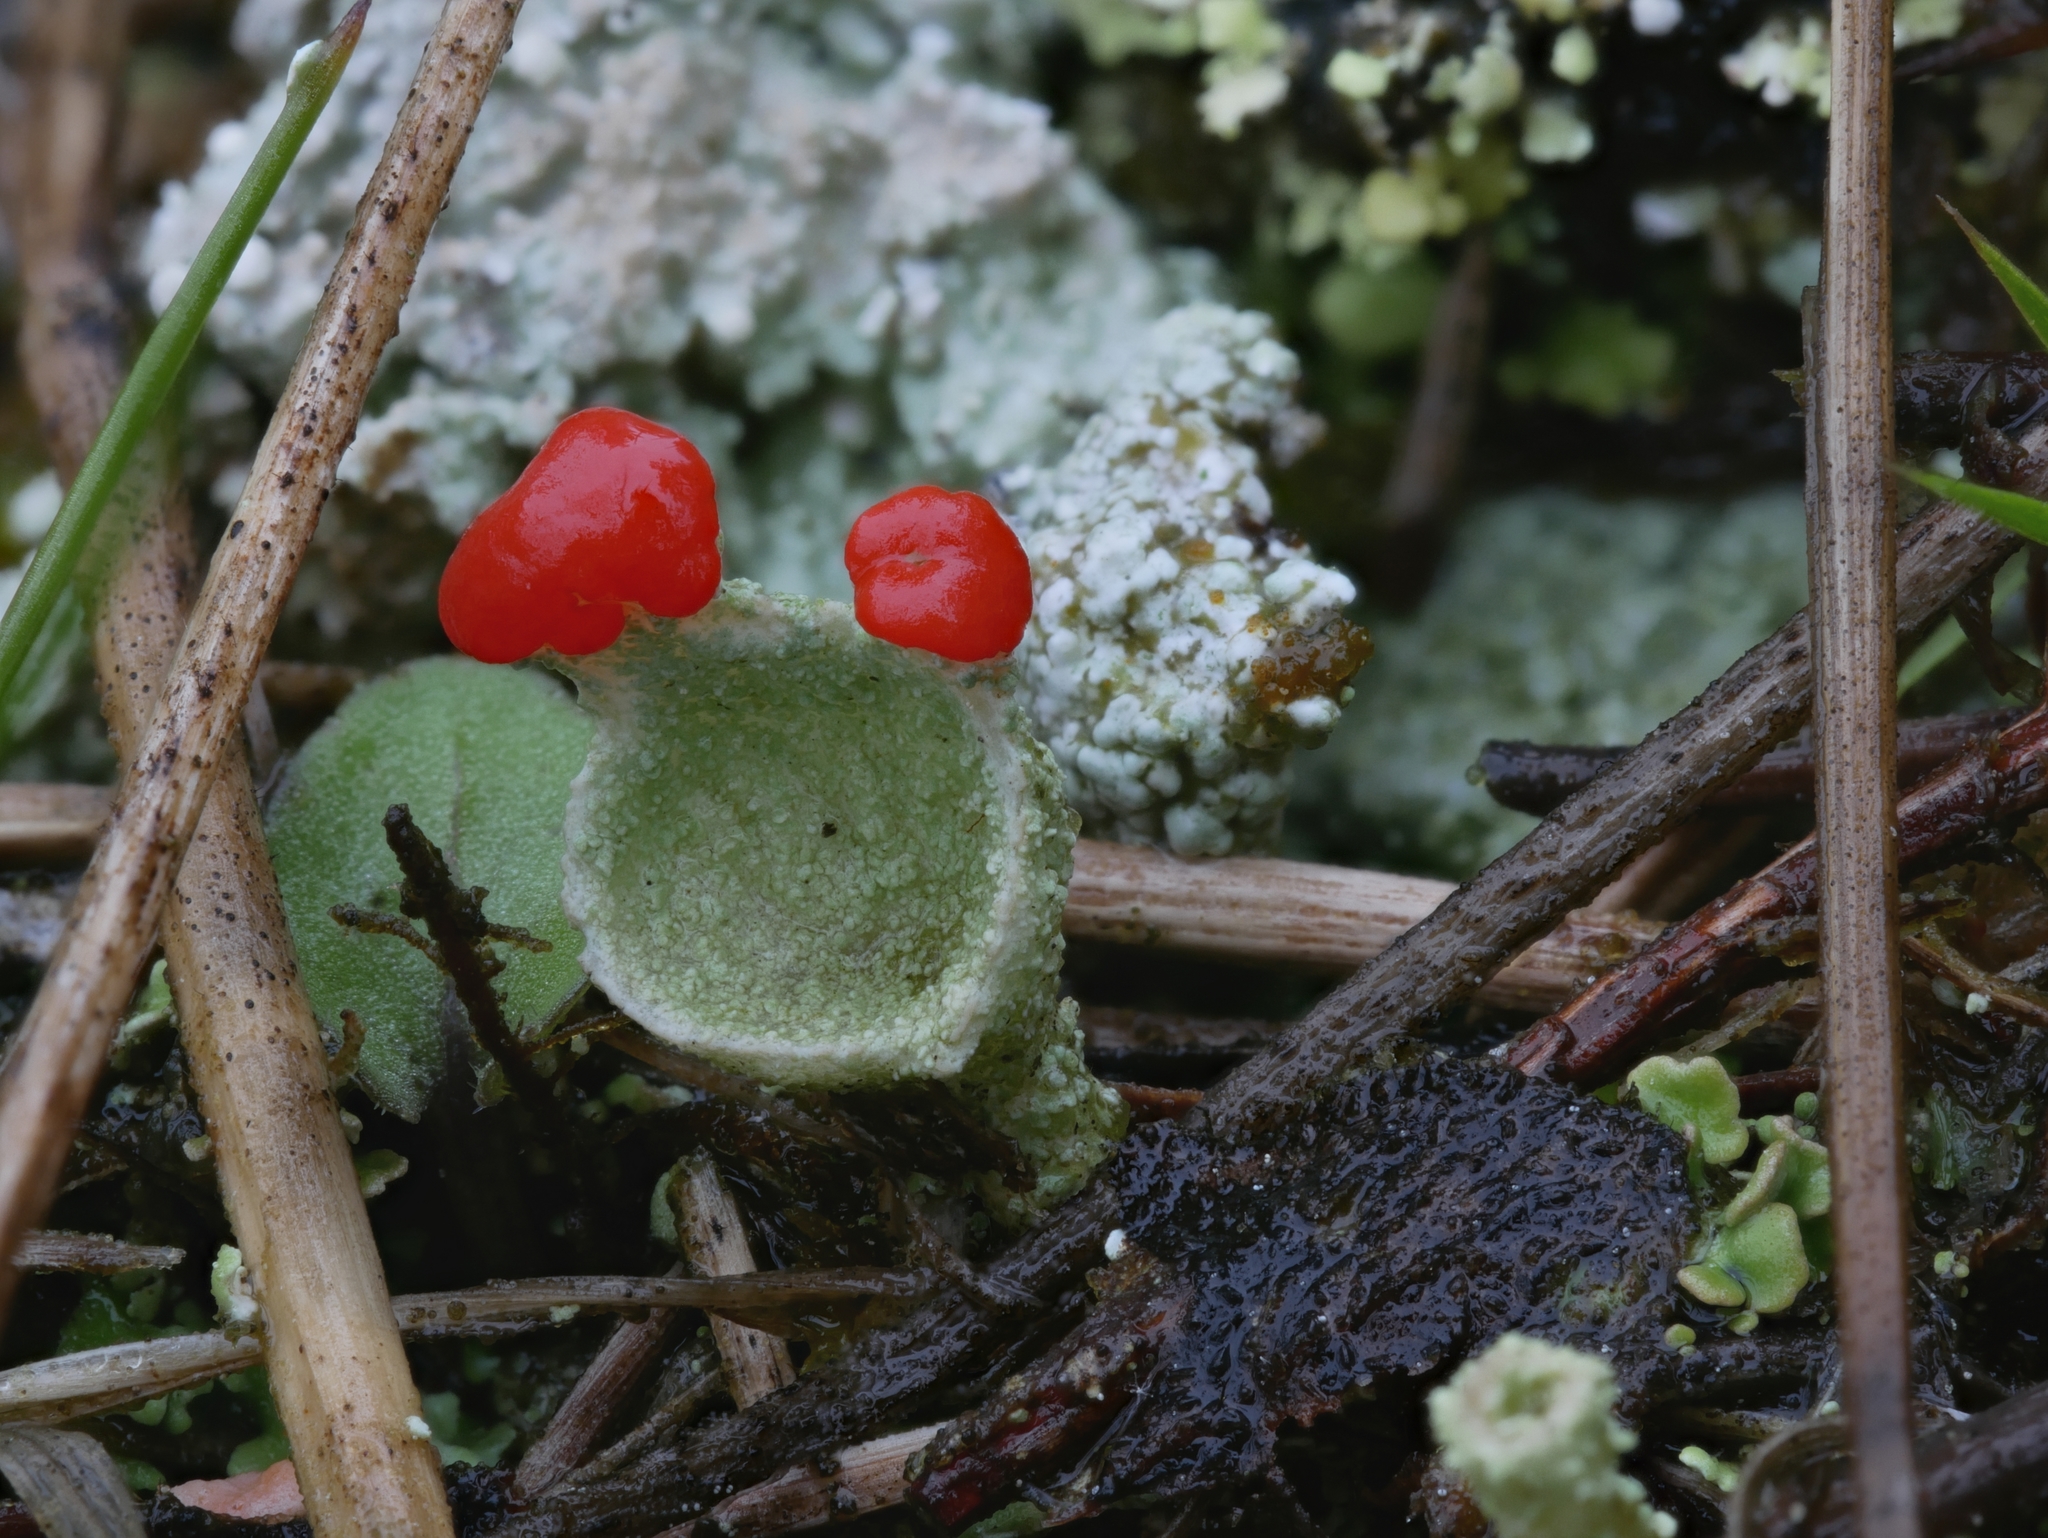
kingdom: Fungi
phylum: Ascomycota
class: Lecanoromycetes
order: Lecanorales
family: Cladoniaceae
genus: Cladonia
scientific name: Cladonia pleurota
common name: Red-fruited pixie cup
